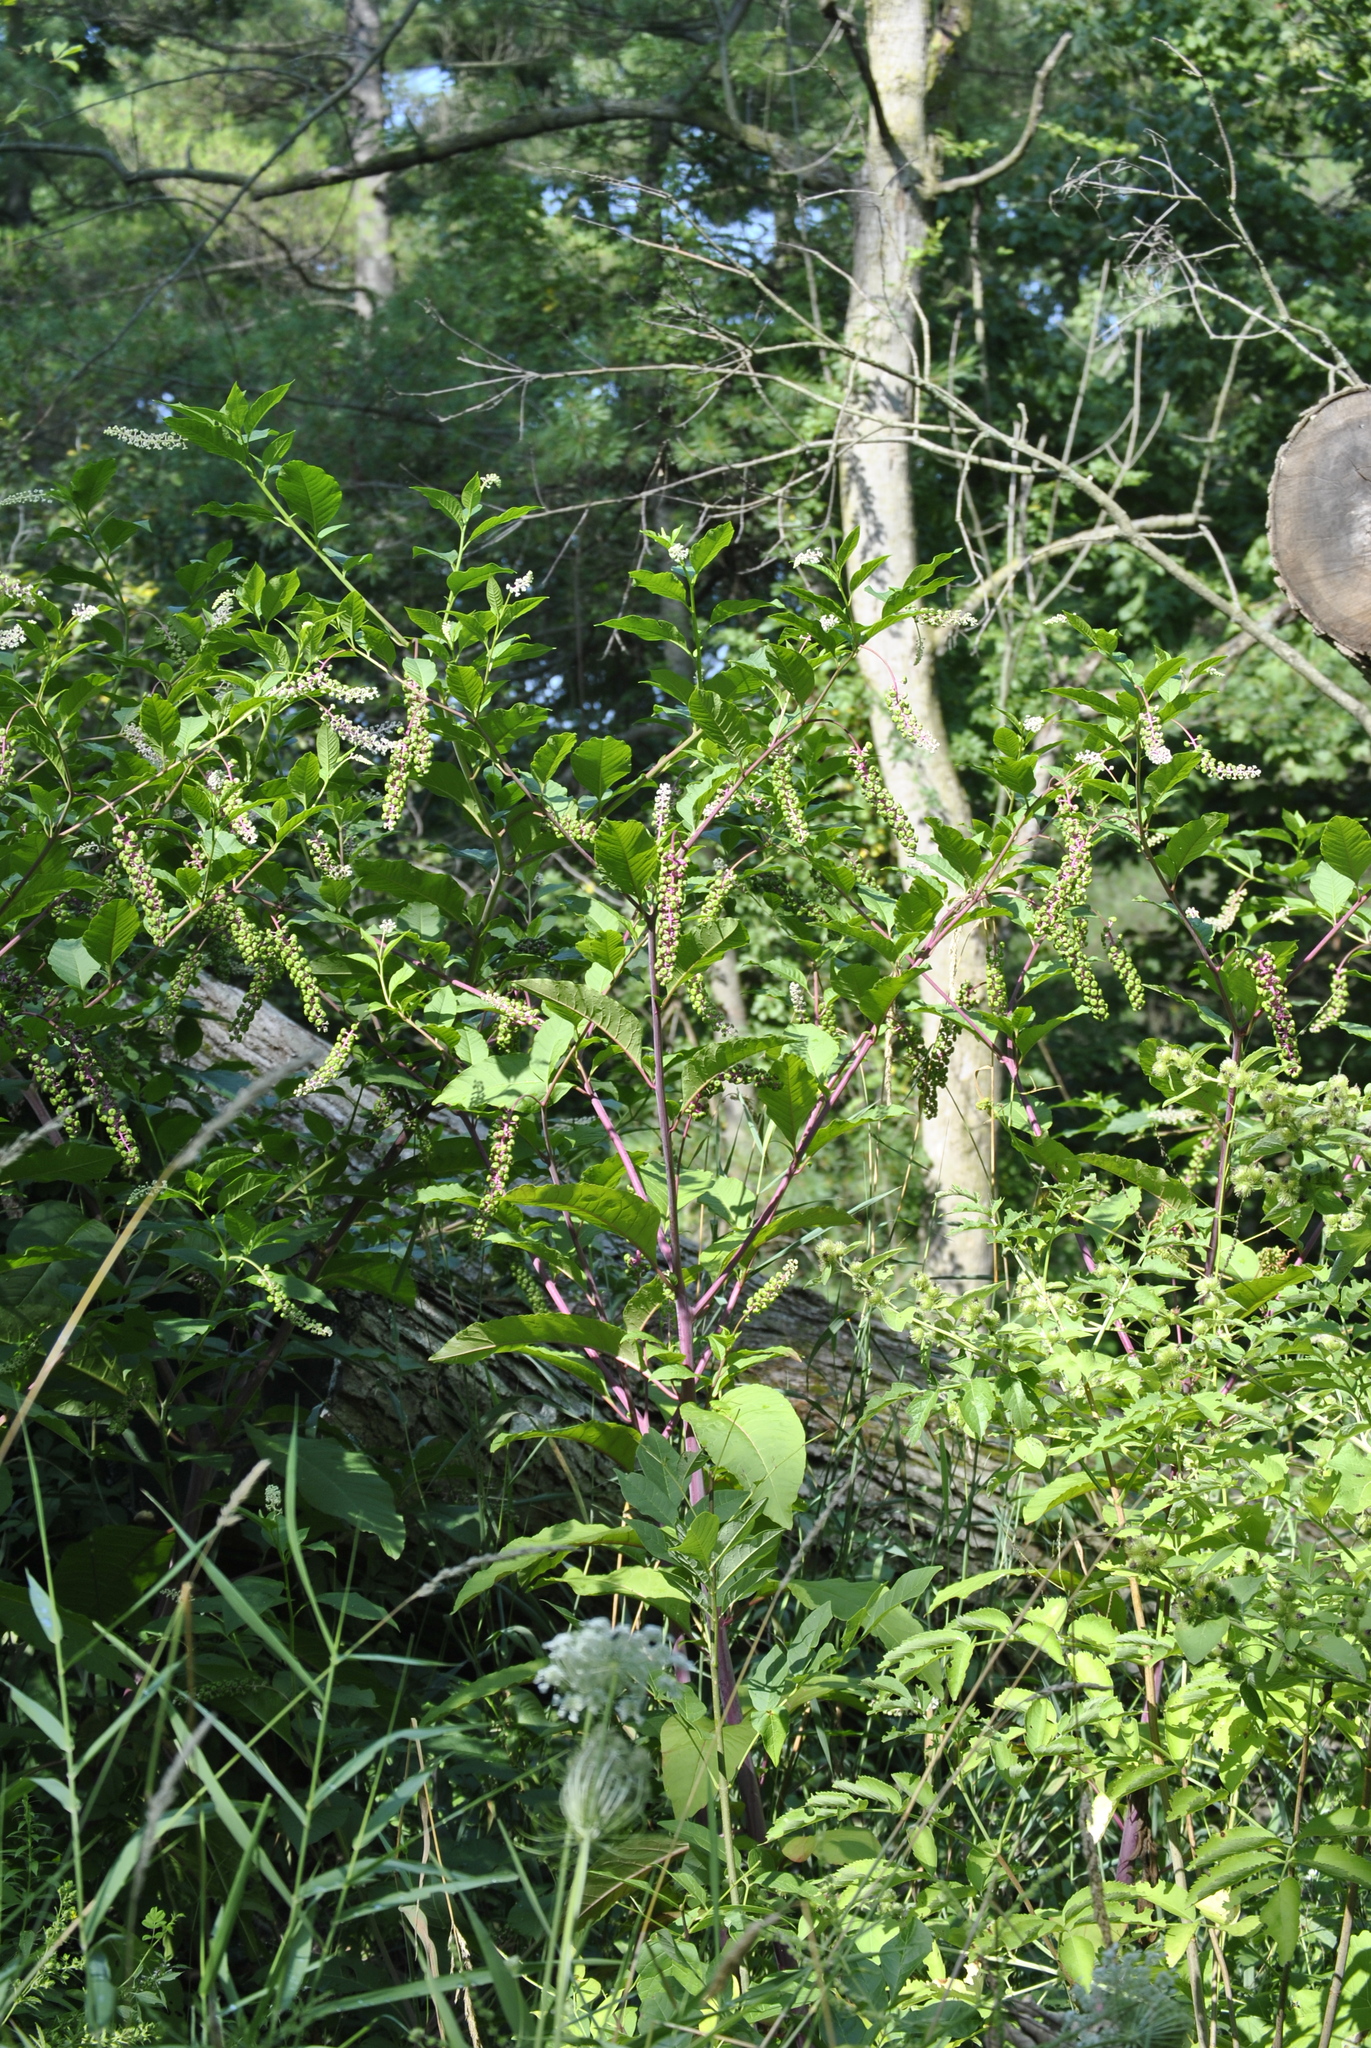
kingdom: Plantae
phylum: Tracheophyta
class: Magnoliopsida
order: Caryophyllales
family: Phytolaccaceae
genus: Phytolacca
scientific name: Phytolacca americana
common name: American pokeweed
